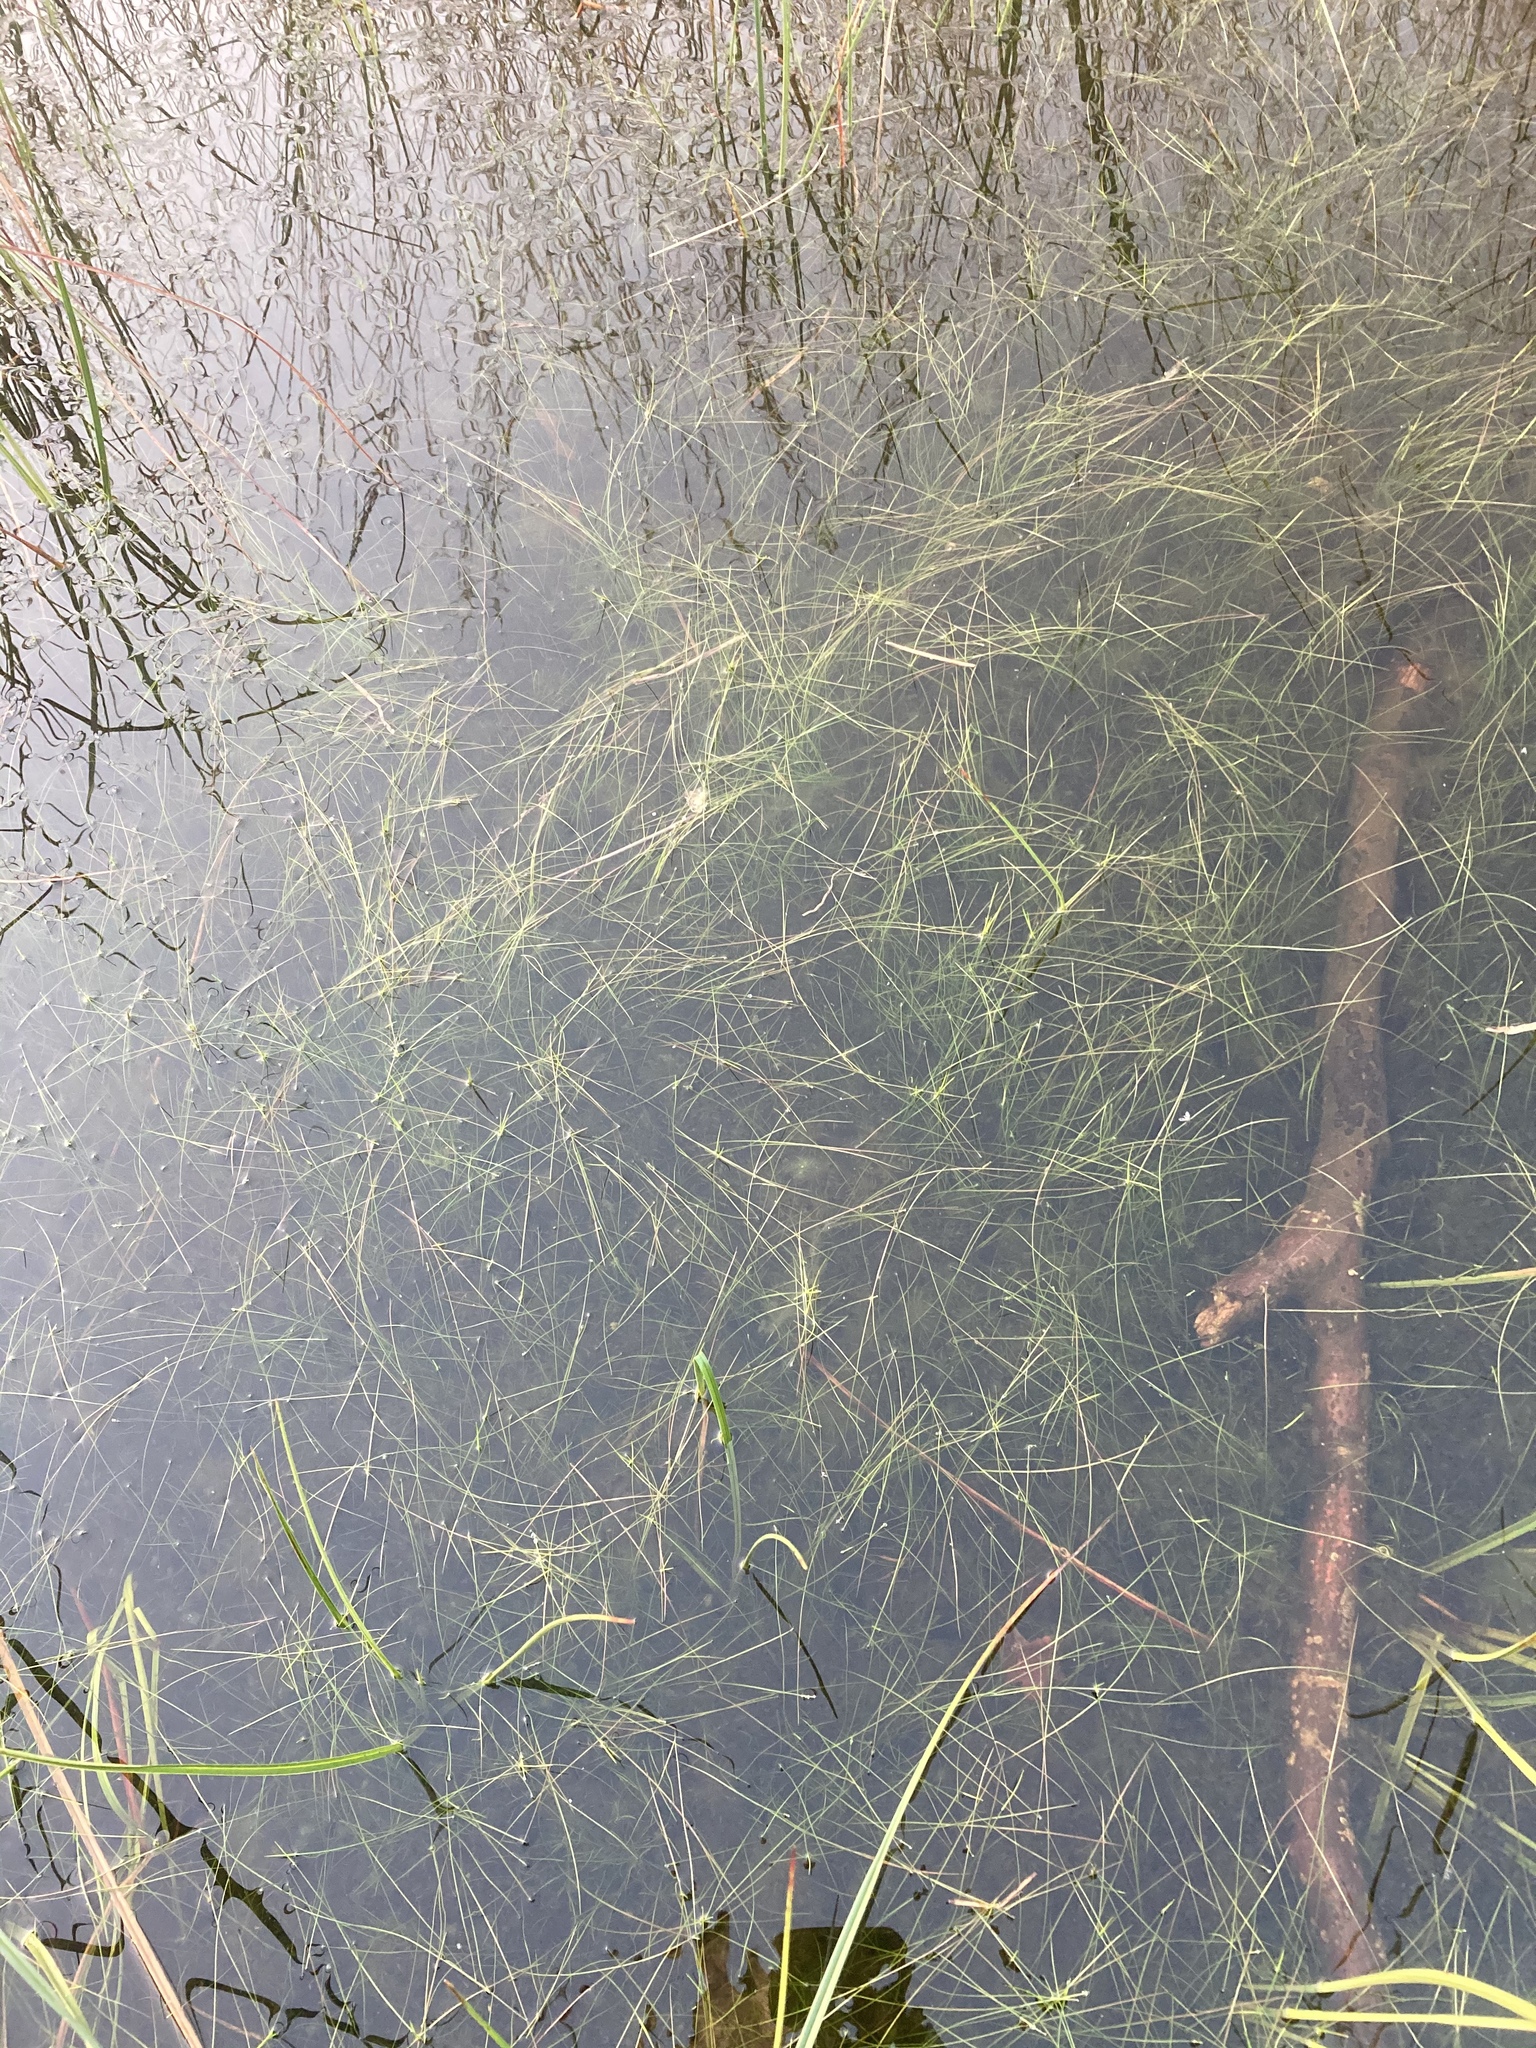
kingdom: Plantae
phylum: Tracheophyta
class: Liliopsida
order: Poales
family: Cyperaceae
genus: Eleocharis
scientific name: Eleocharis acicularis
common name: Needle spike-rush
